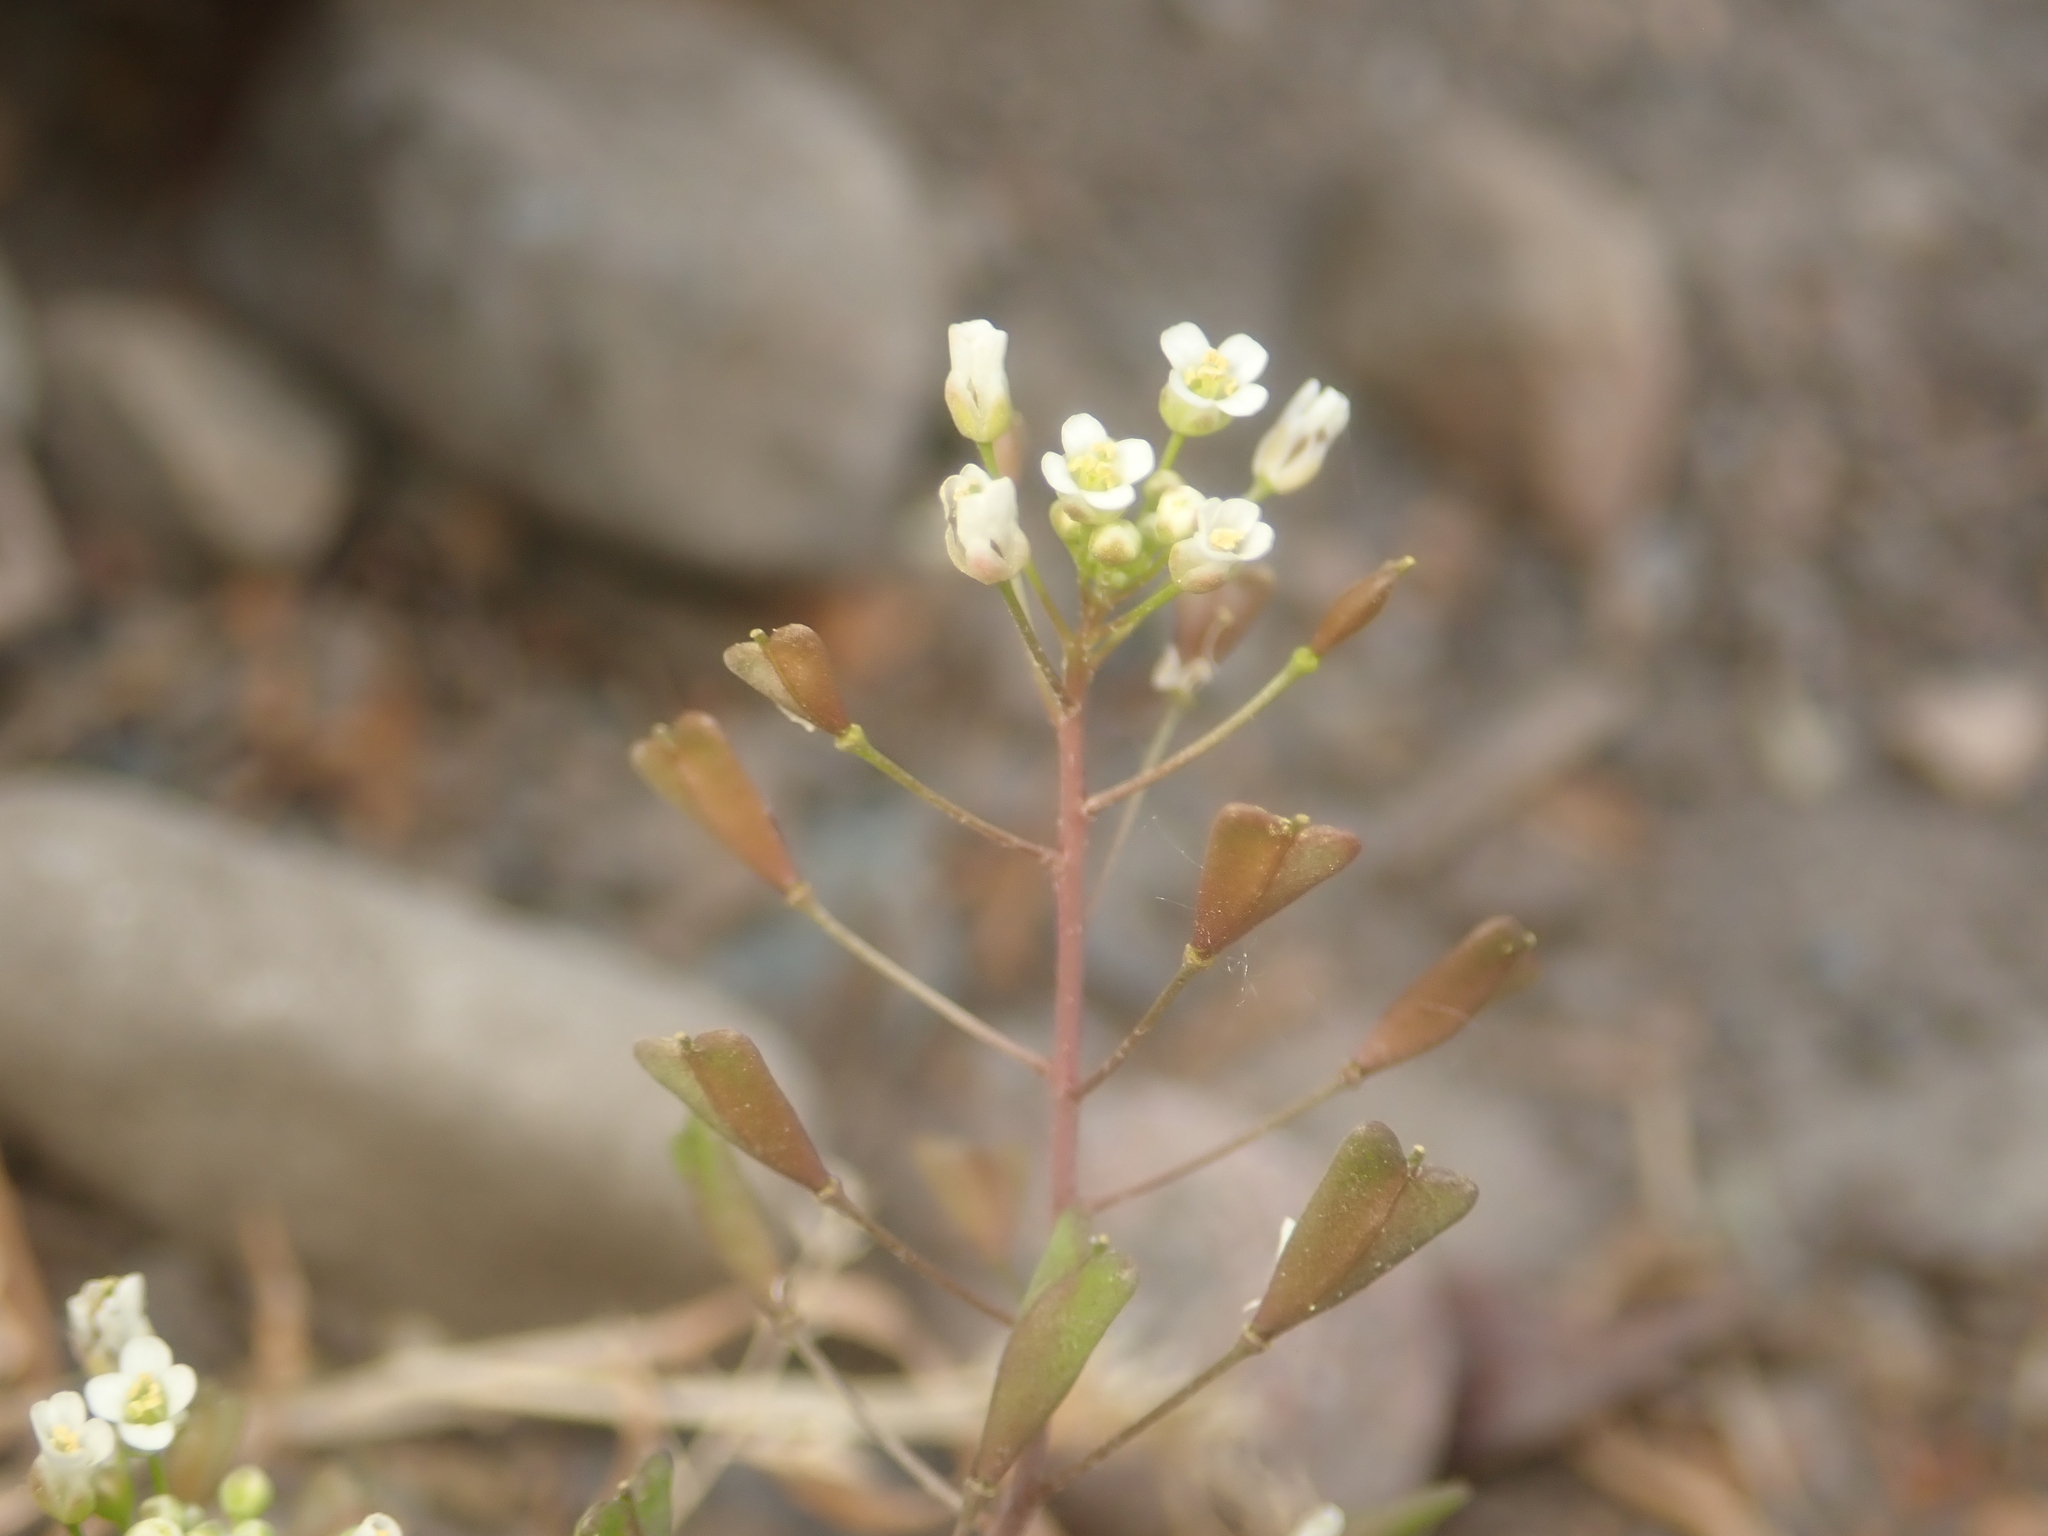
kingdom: Plantae
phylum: Tracheophyta
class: Magnoliopsida
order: Brassicales
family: Brassicaceae
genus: Capsella
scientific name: Capsella bursa-pastoris
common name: Shepherd's purse
